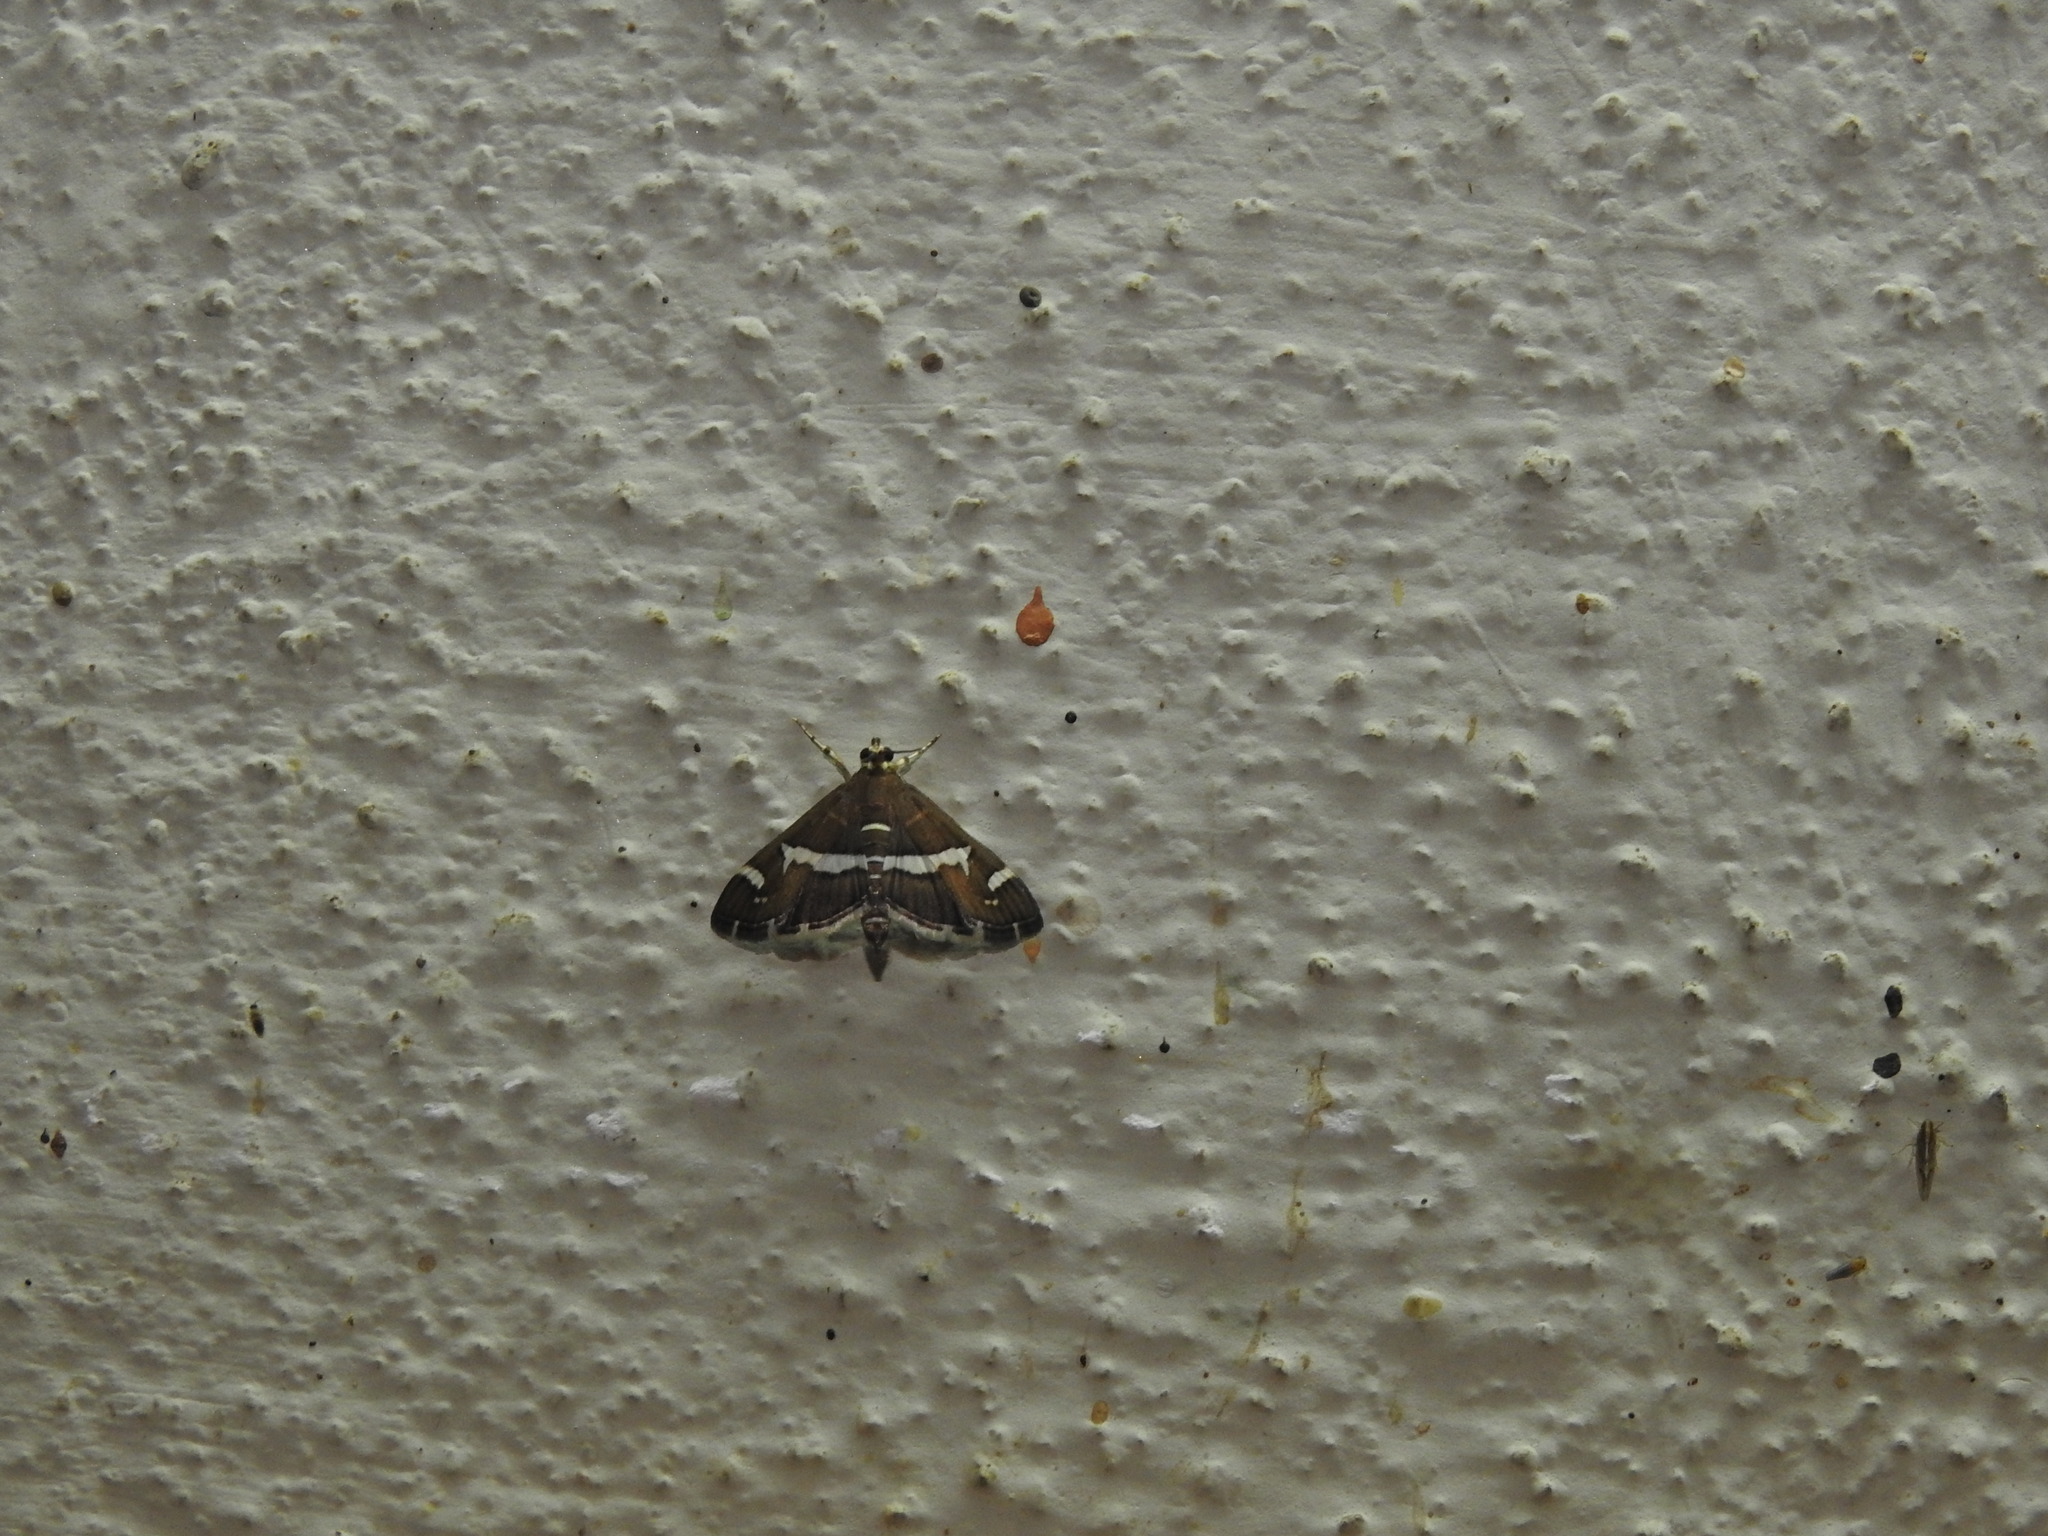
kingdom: Animalia
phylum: Arthropoda
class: Insecta
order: Lepidoptera
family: Crambidae
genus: Spoladea
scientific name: Spoladea recurvalis
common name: Beet webworm moth
